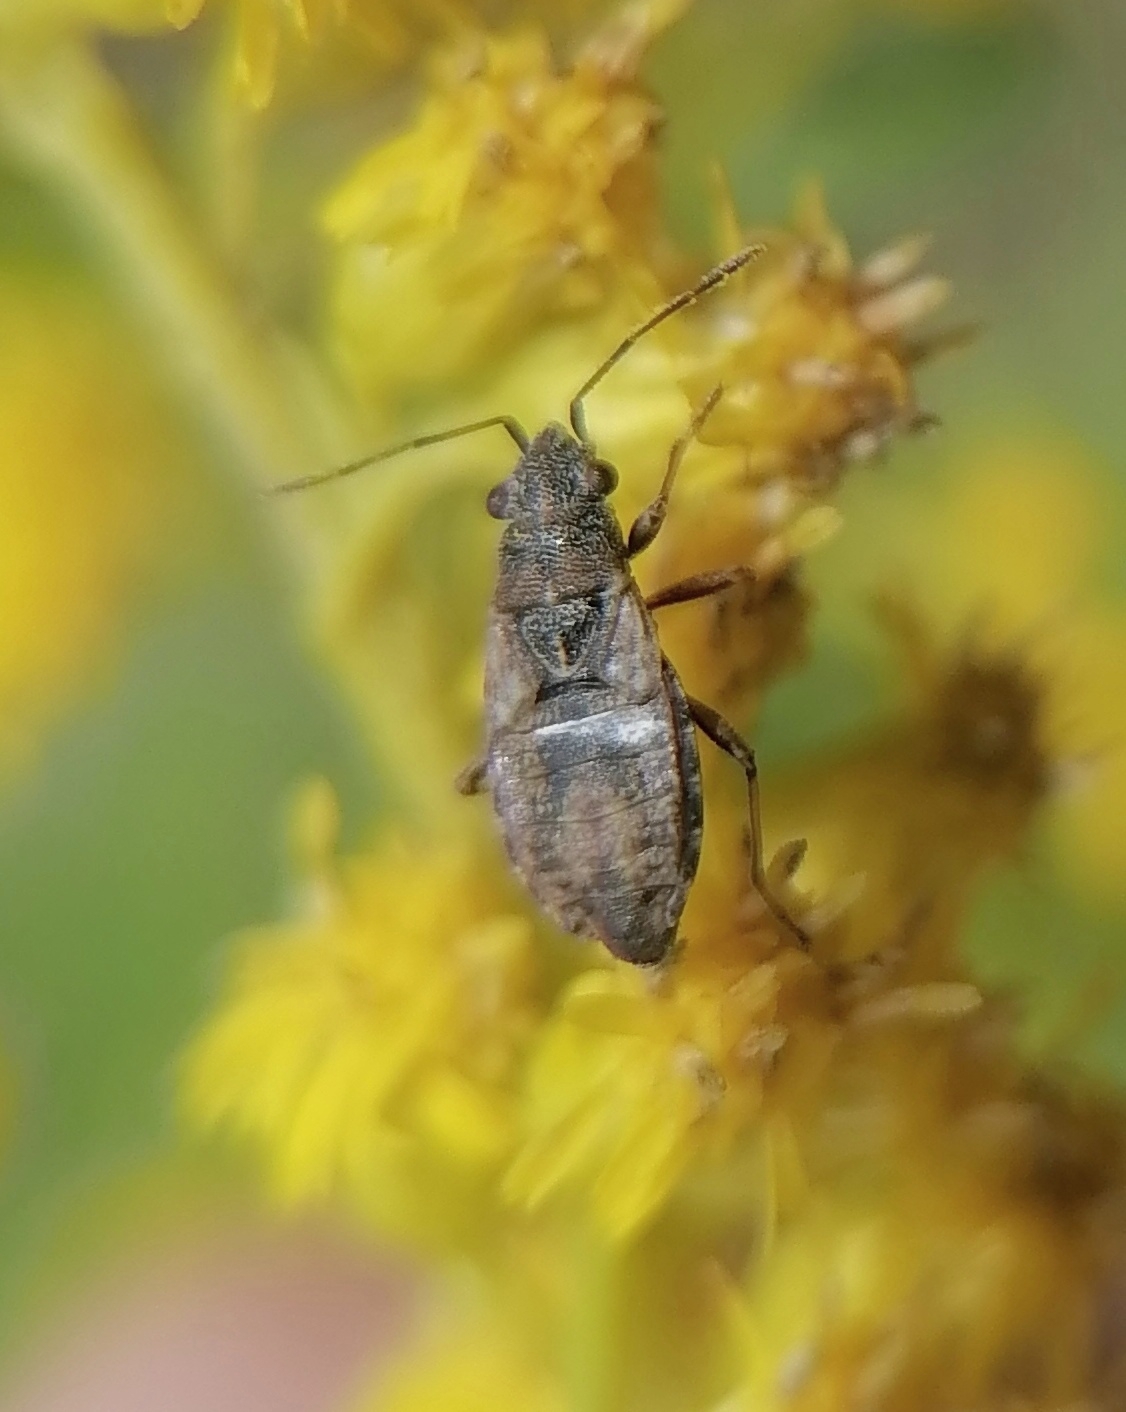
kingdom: Animalia
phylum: Arthropoda
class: Insecta
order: Hemiptera
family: Lygaeidae
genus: Nithecus
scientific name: Nithecus jacobaeae
